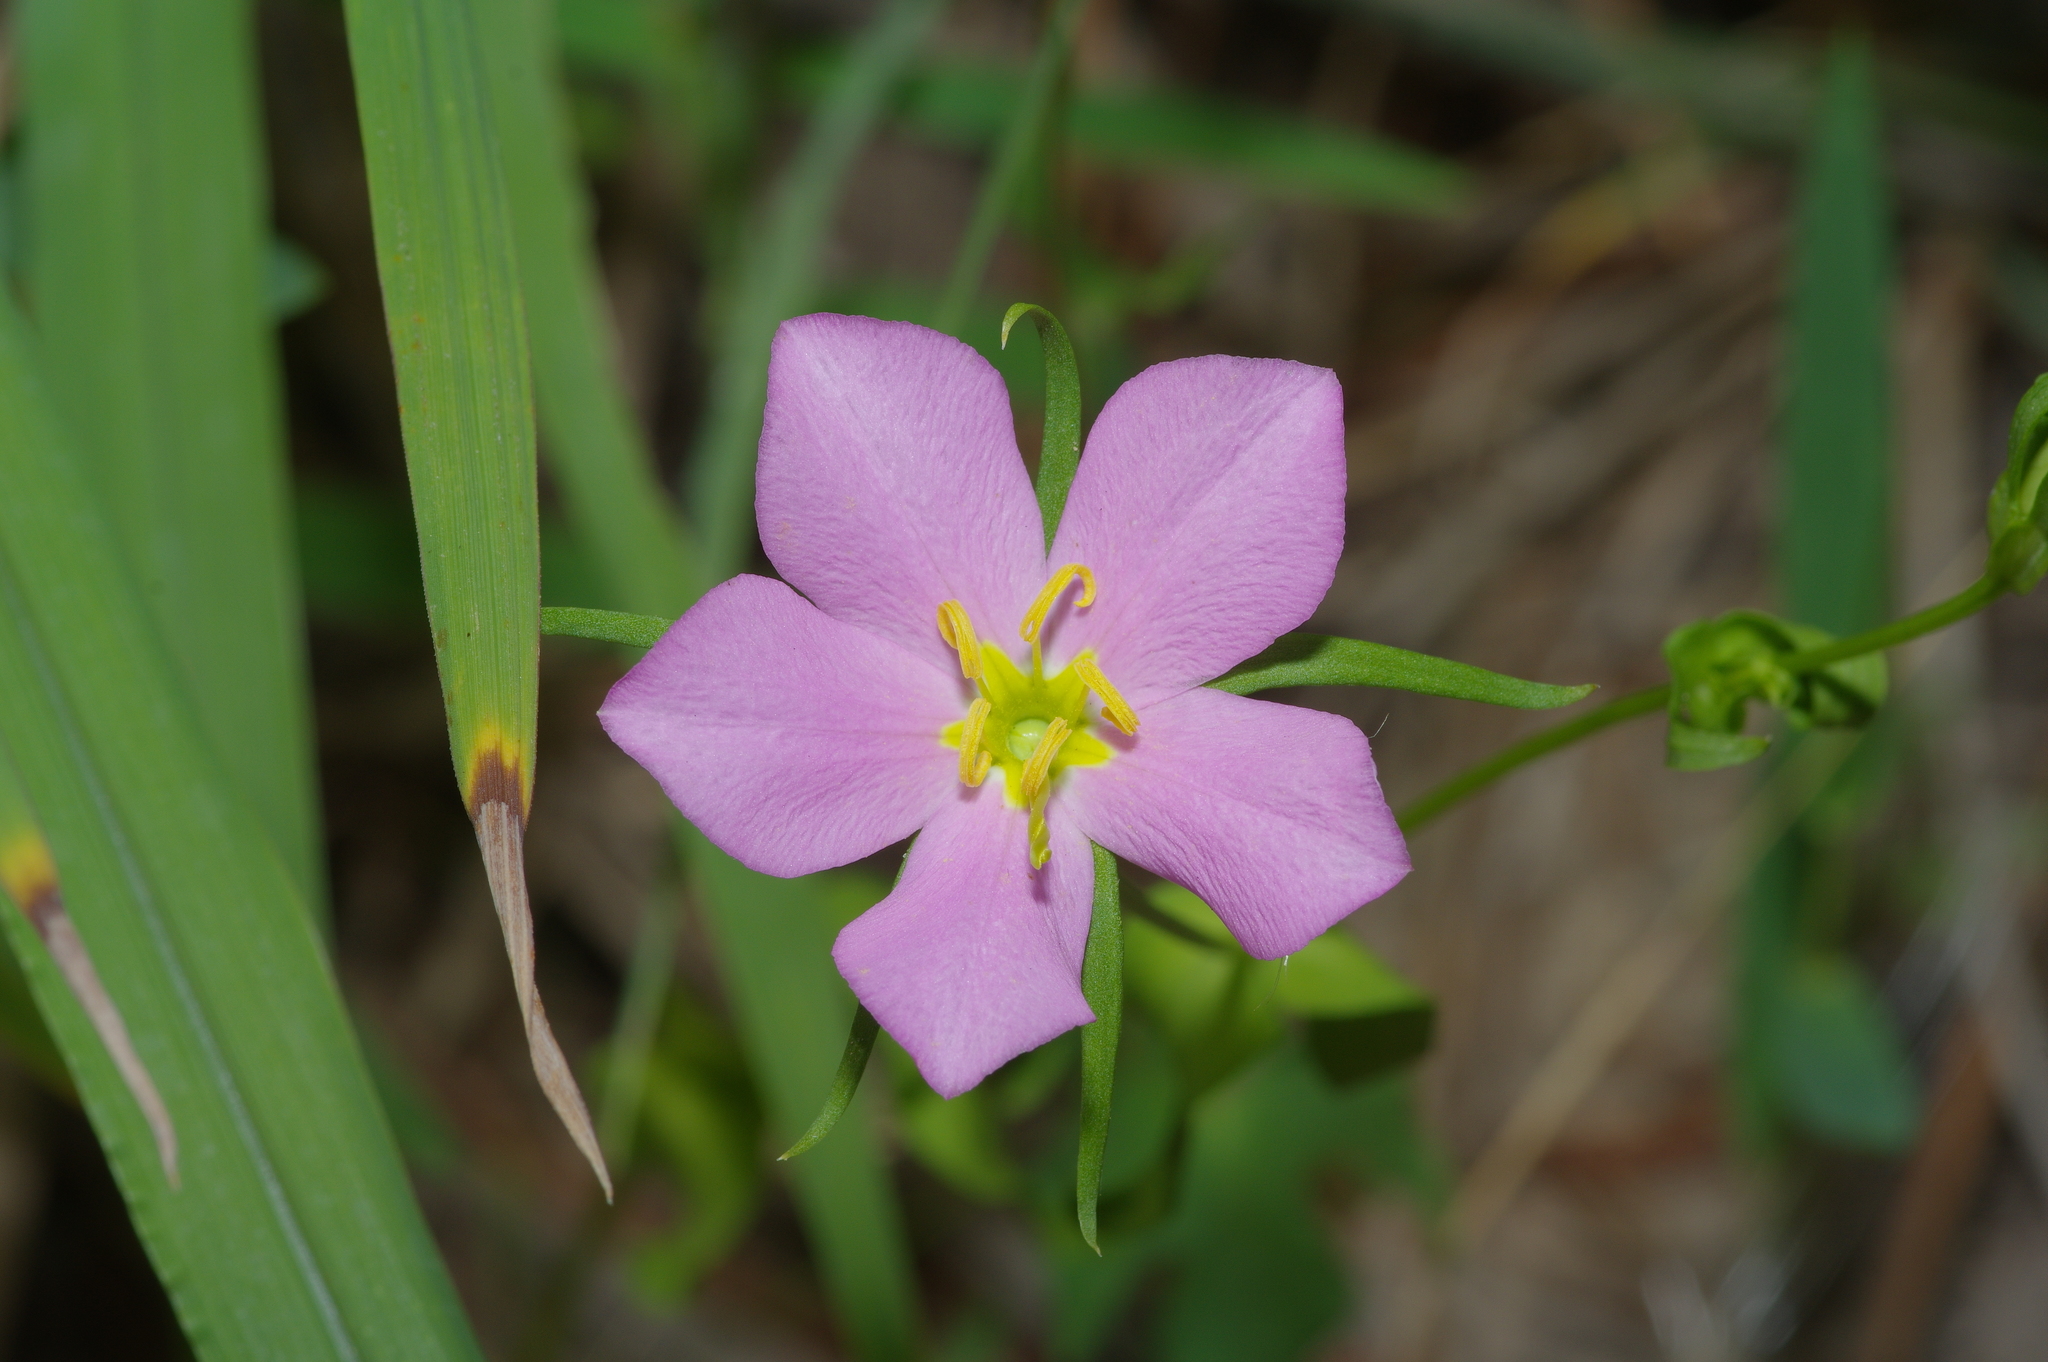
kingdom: Plantae
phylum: Tracheophyta
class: Magnoliopsida
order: Gentianales
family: Gentianaceae
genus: Sabatia
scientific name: Sabatia campestris
